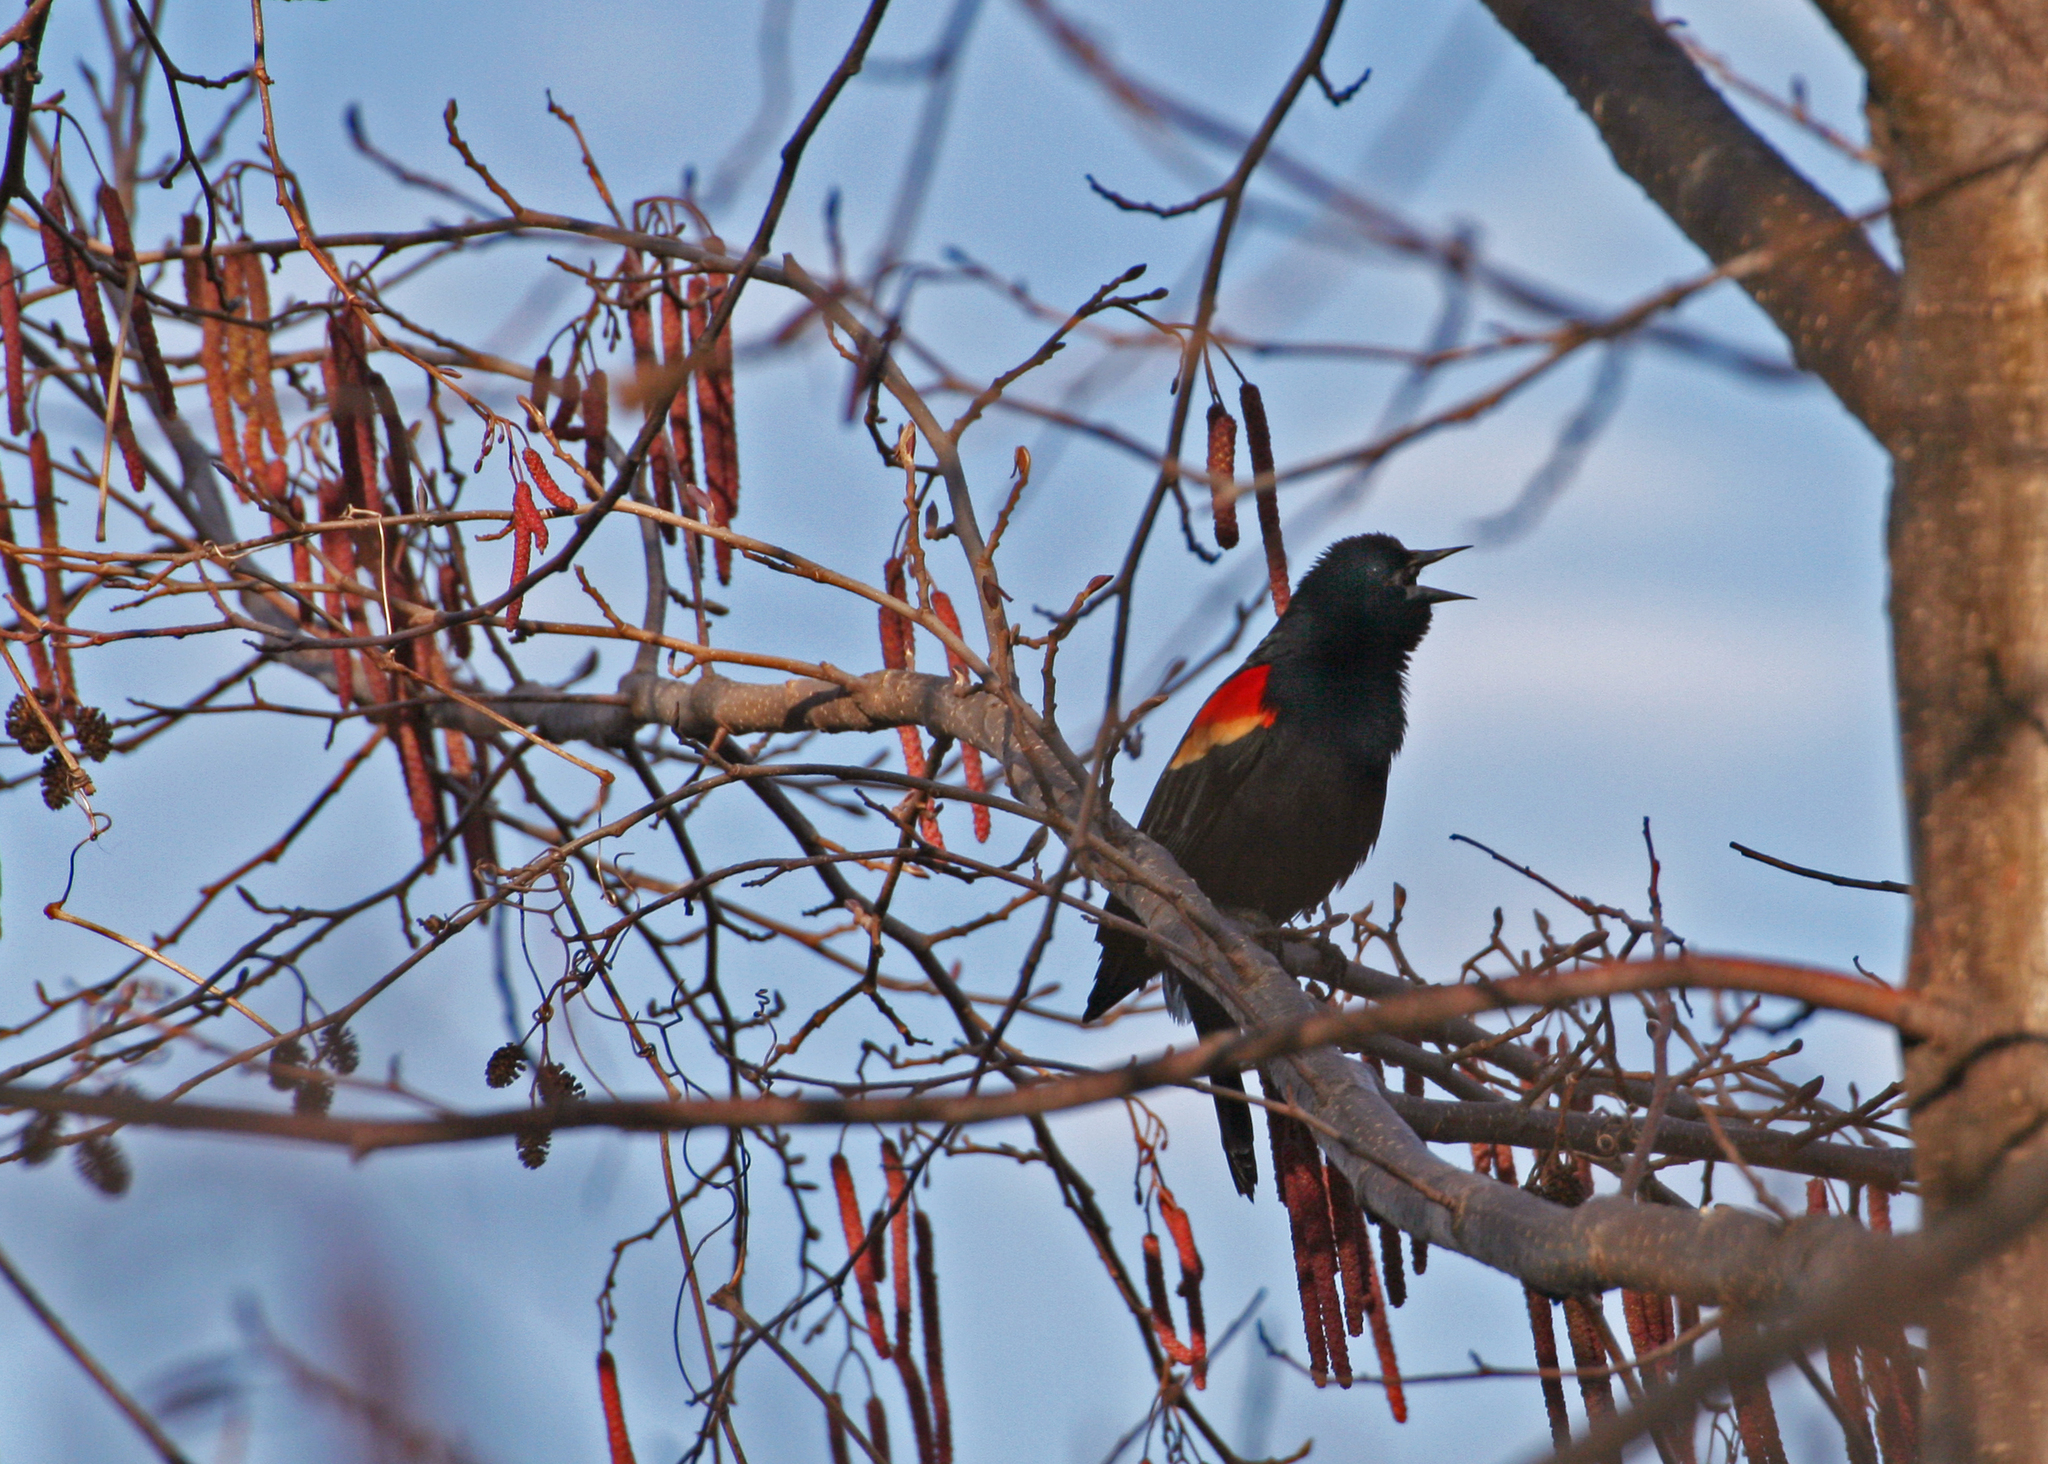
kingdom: Animalia
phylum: Chordata
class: Aves
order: Passeriformes
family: Icteridae
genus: Agelaius
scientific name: Agelaius phoeniceus
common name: Red-winged blackbird
